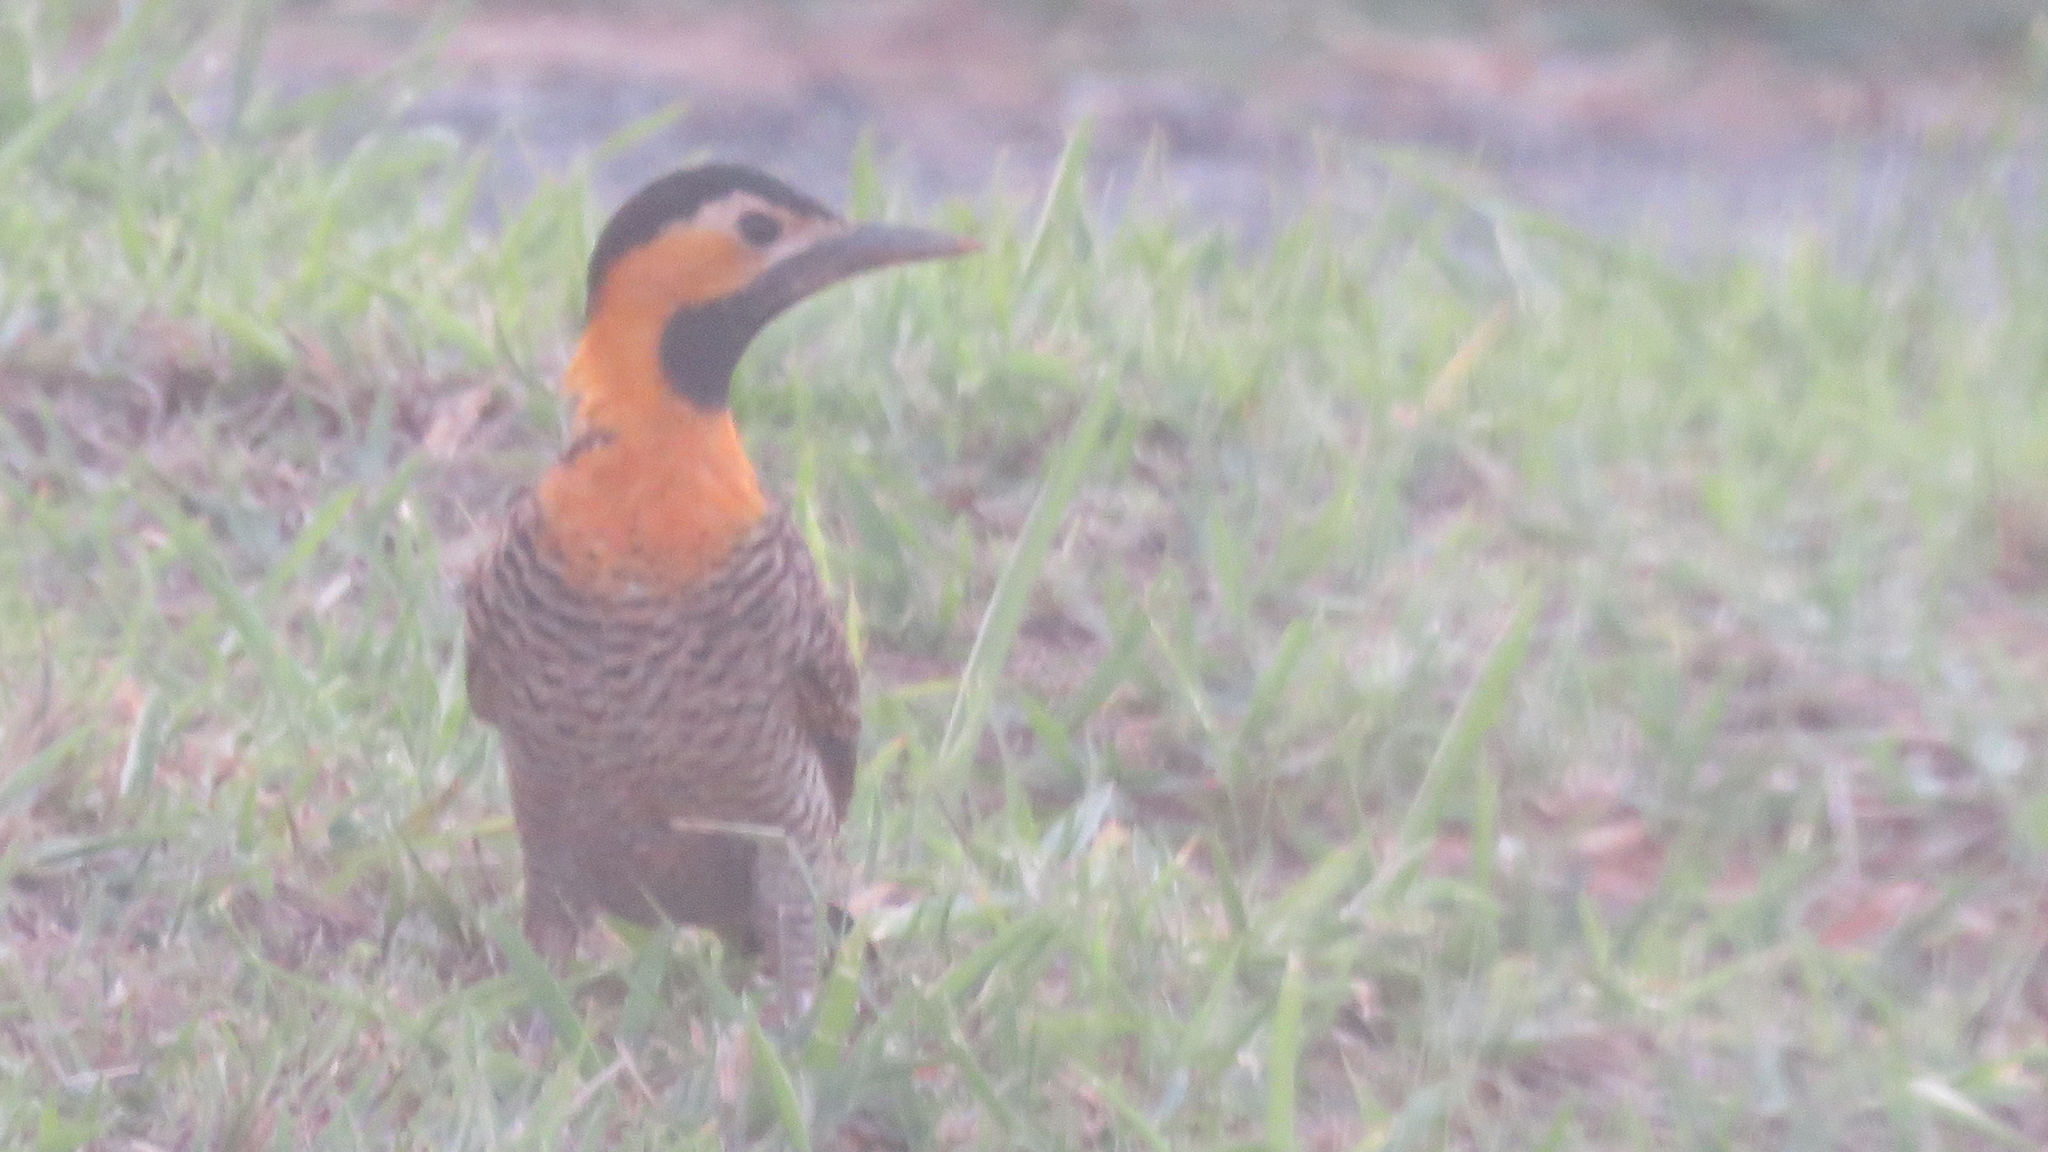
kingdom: Animalia
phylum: Chordata
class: Aves
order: Piciformes
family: Picidae
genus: Colaptes
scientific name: Colaptes campestris
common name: Campo flicker
